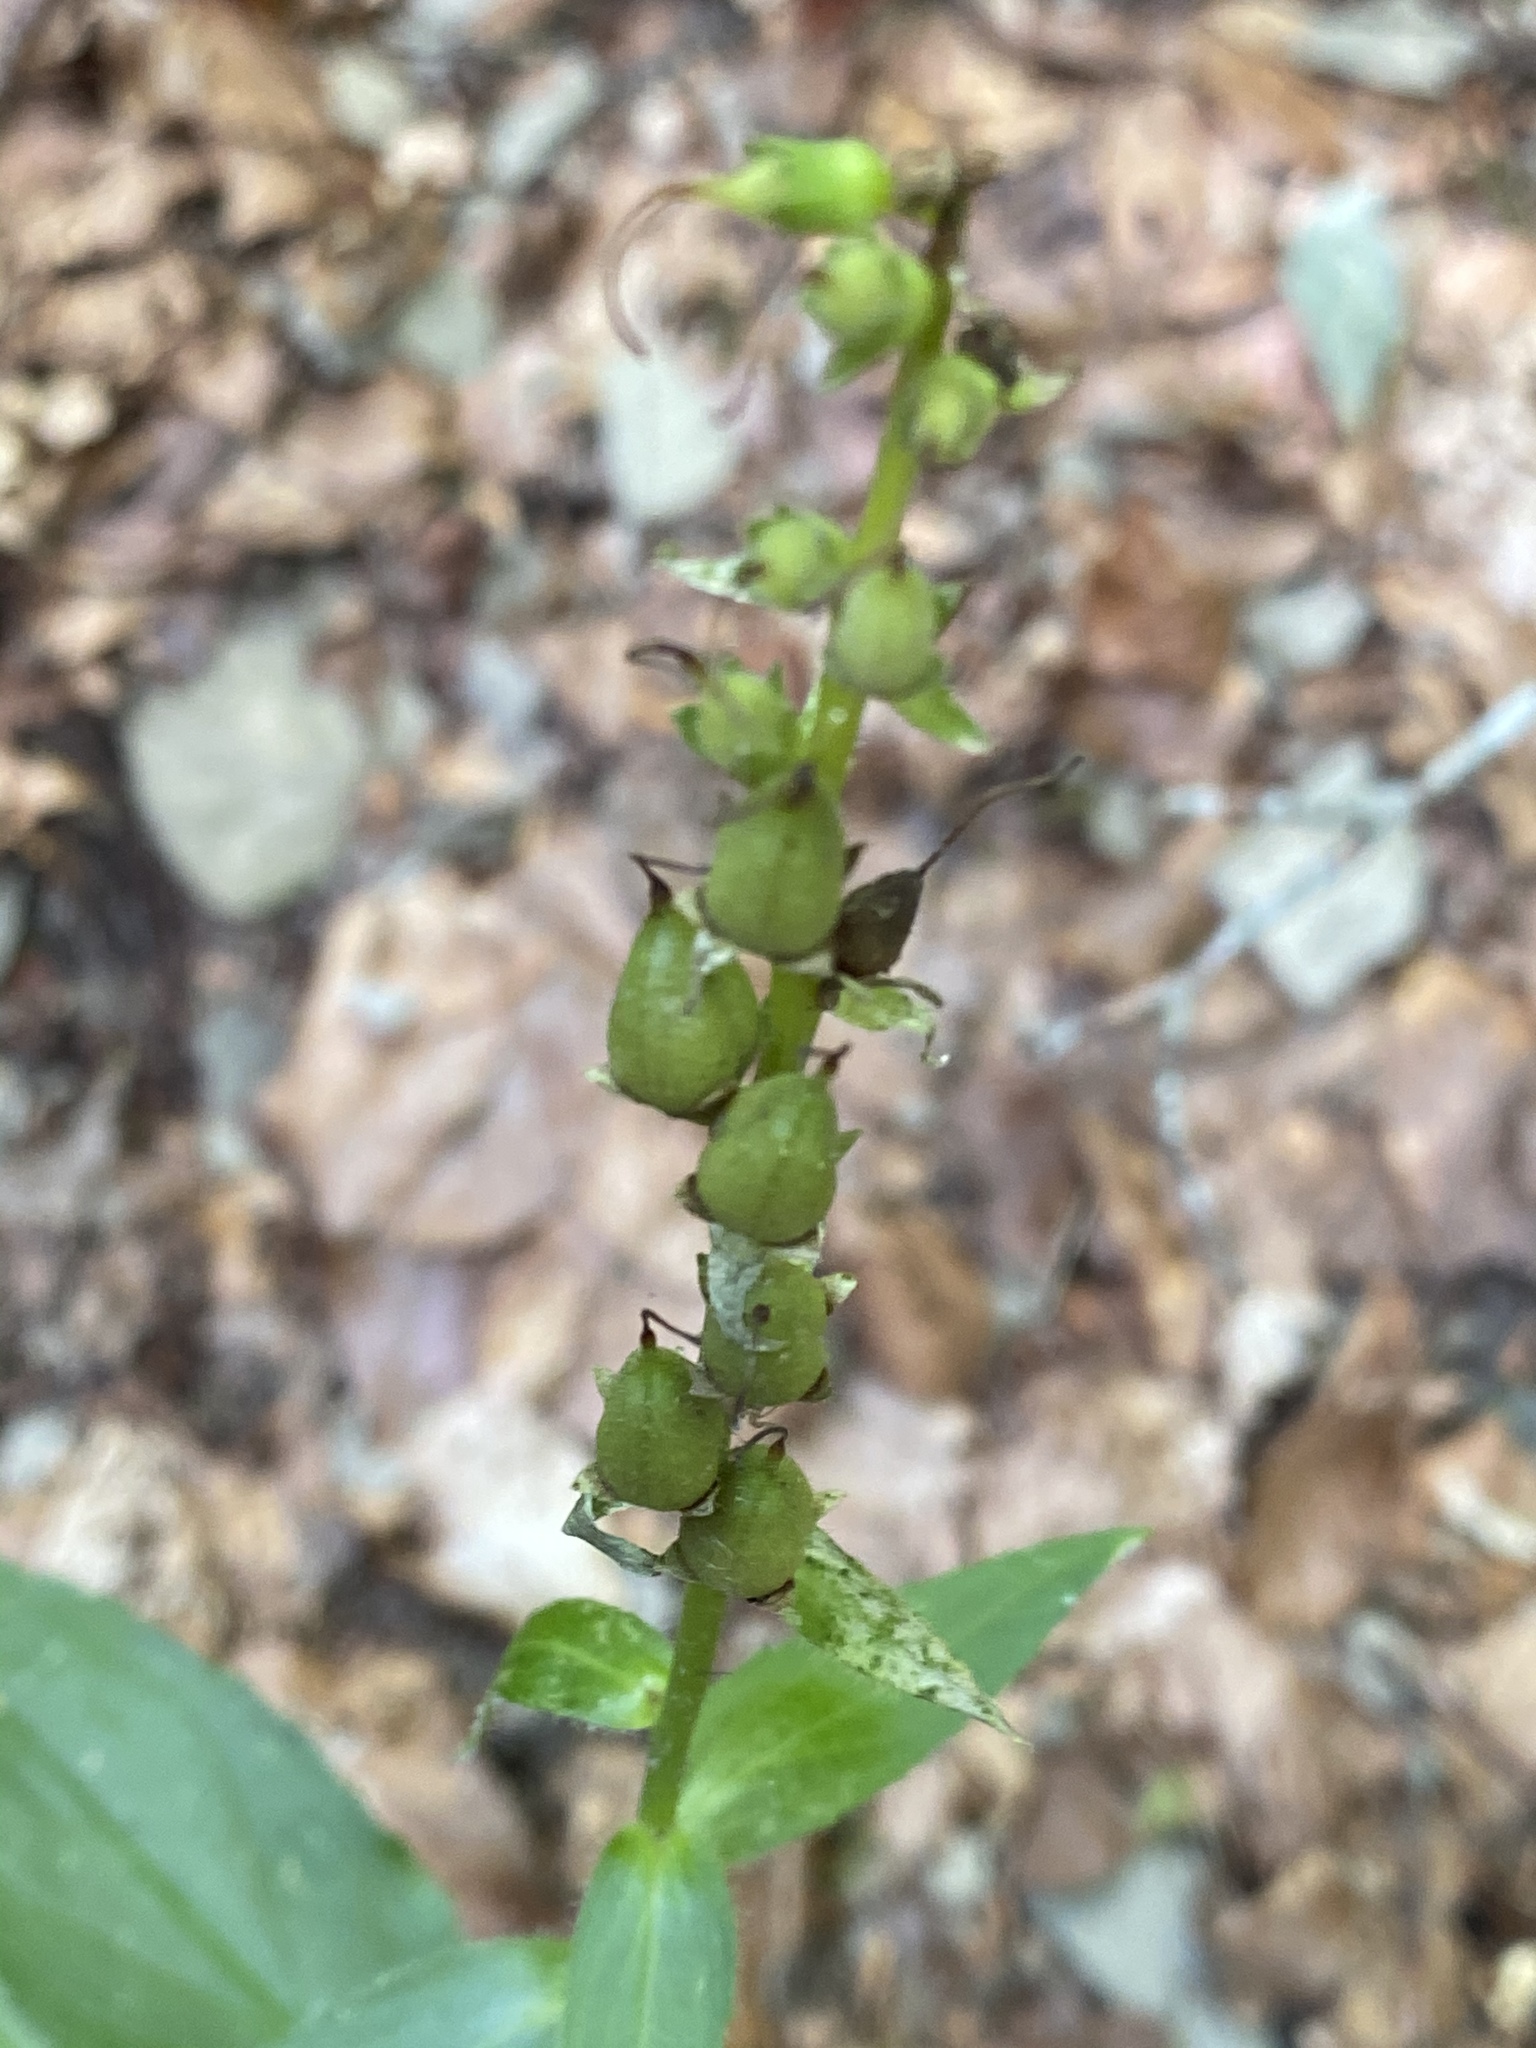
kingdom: Plantae
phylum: Tracheophyta
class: Magnoliopsida
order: Lamiales
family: Plantaginaceae
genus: Digitalis
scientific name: Digitalis lutea
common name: Straw foxglove
